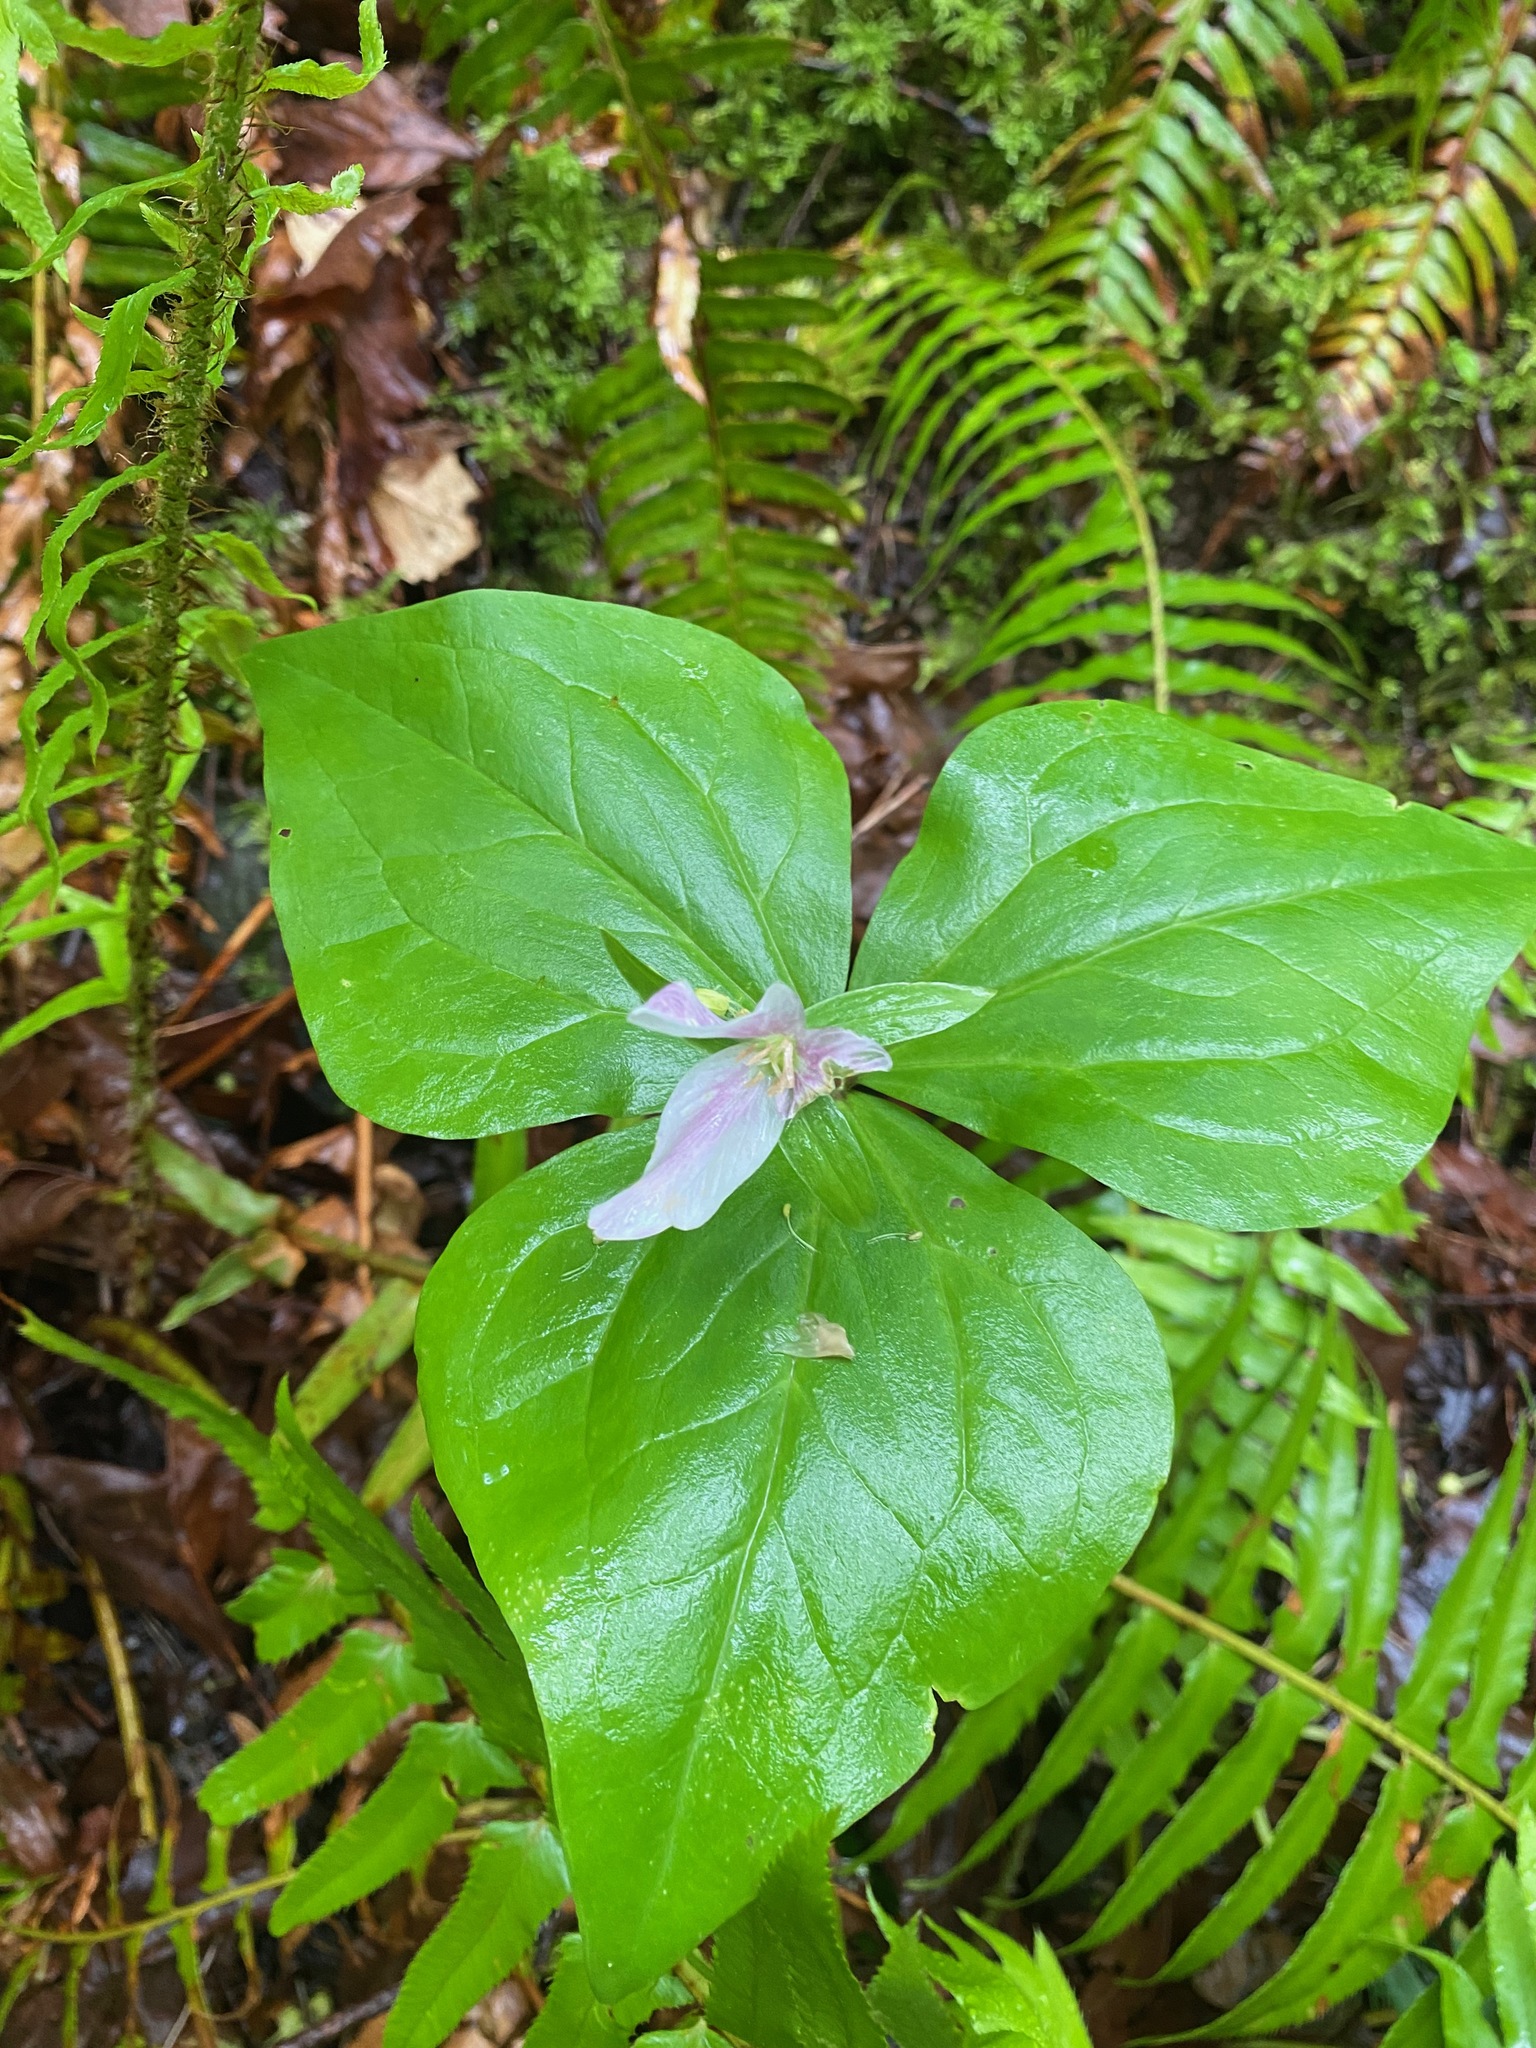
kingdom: Plantae
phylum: Tracheophyta
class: Liliopsida
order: Liliales
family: Melanthiaceae
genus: Trillium
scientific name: Trillium ovatum
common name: Pacific trillium
